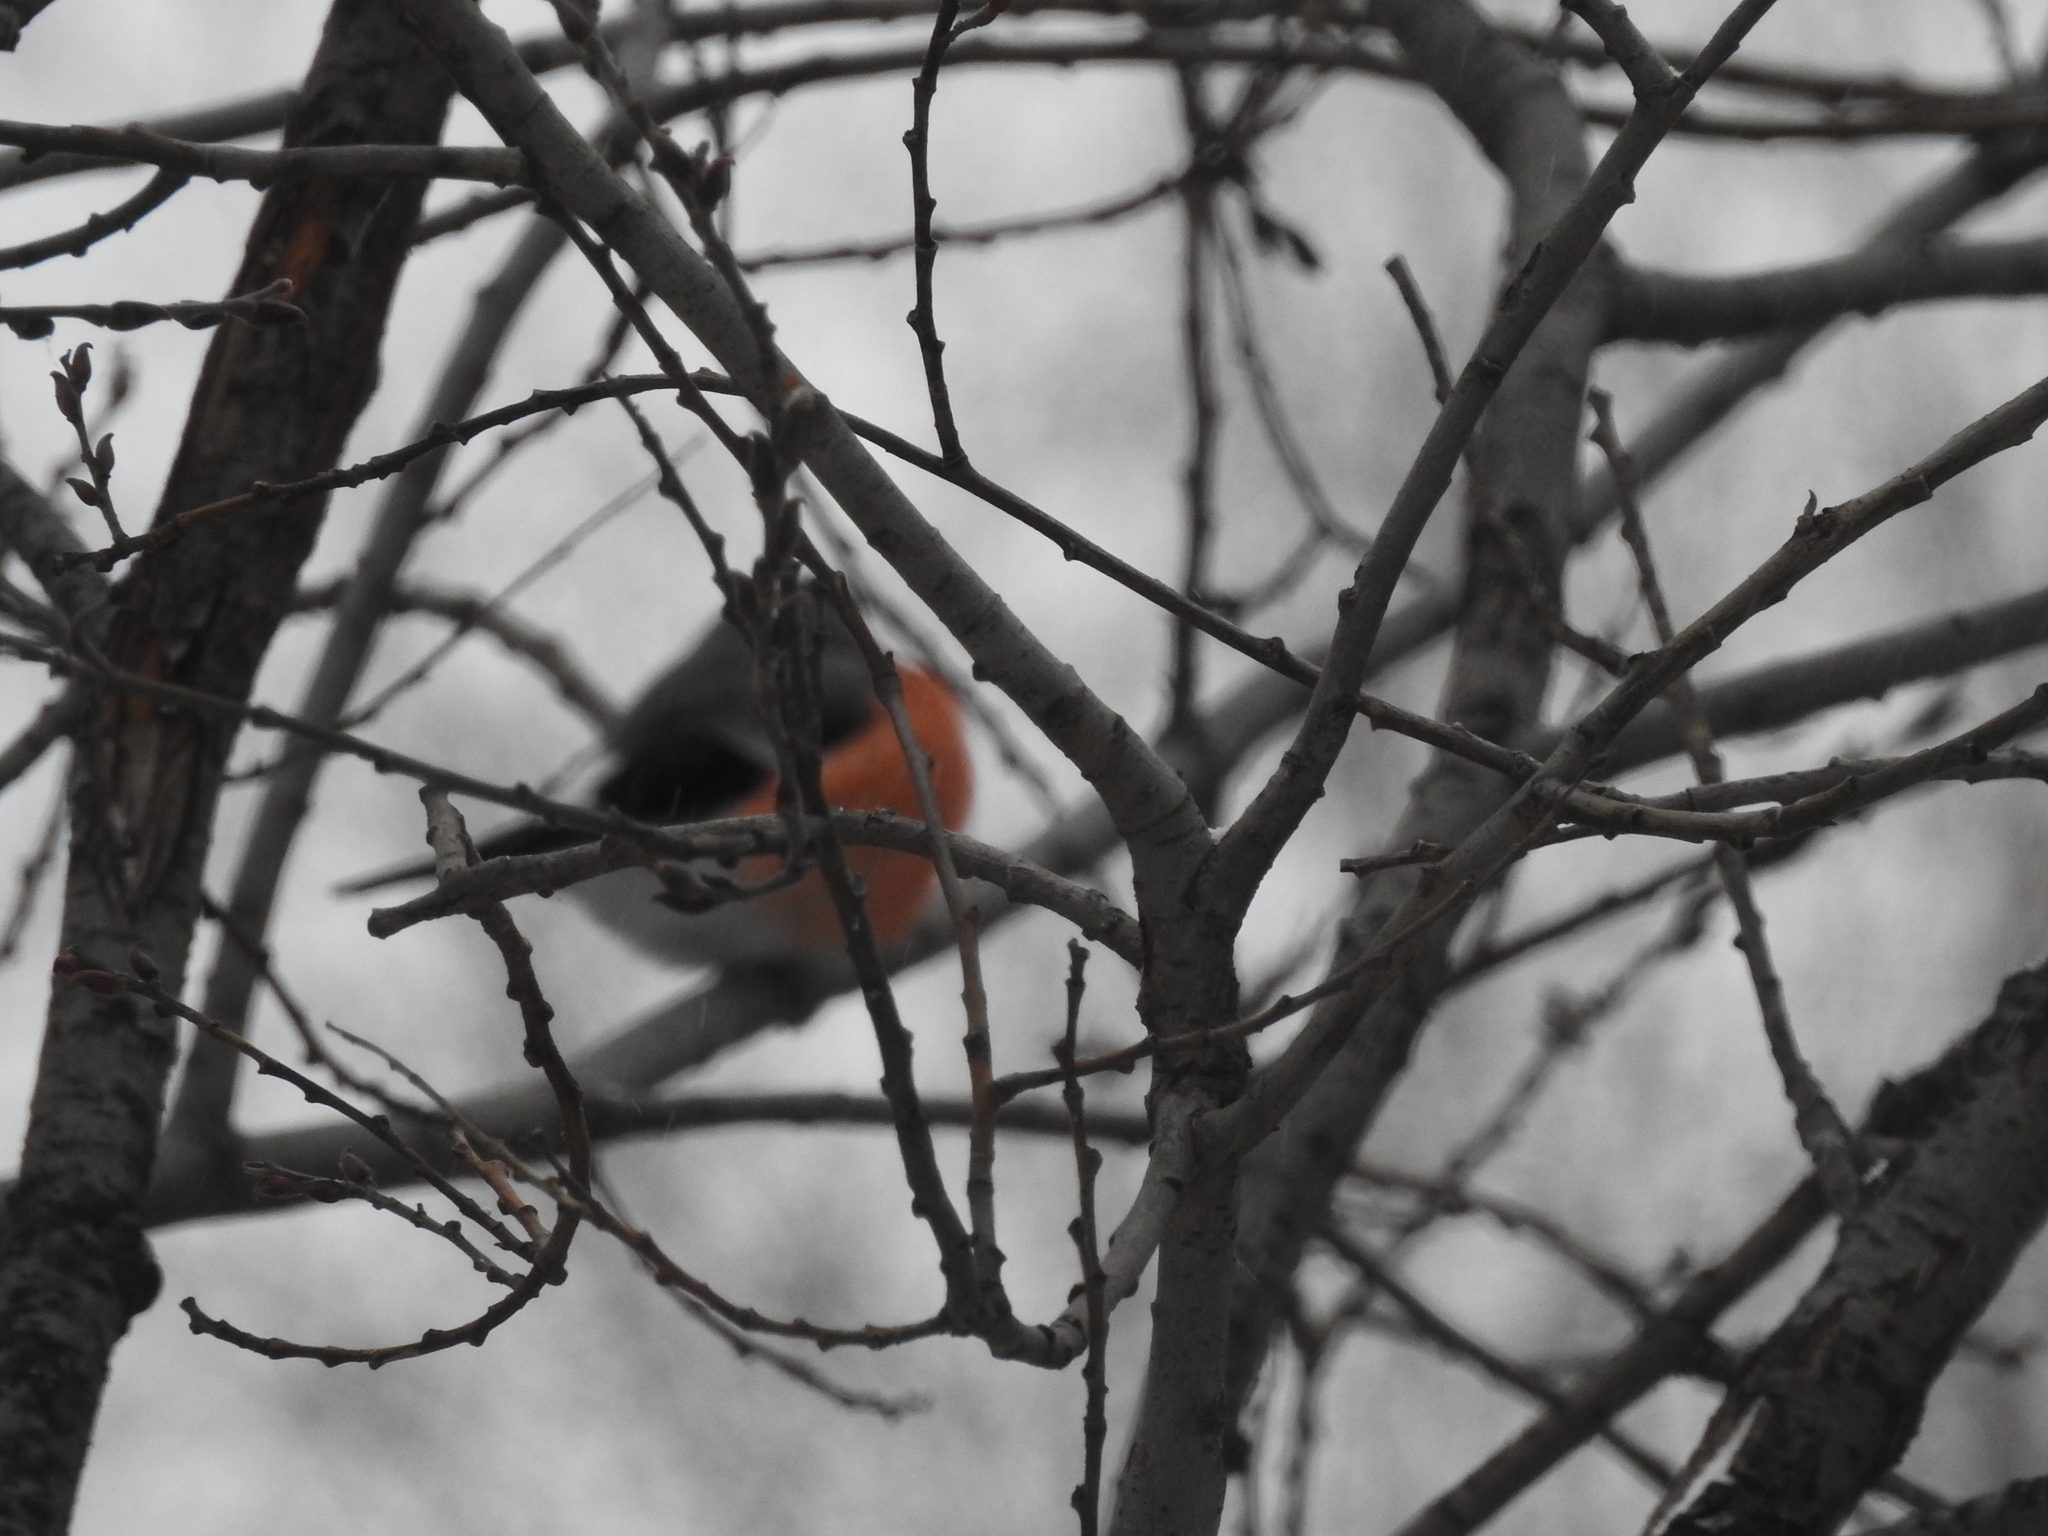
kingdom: Animalia
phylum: Chordata
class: Aves
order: Passeriformes
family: Fringillidae
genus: Pyrrhula
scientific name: Pyrrhula pyrrhula
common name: Eurasian bullfinch
